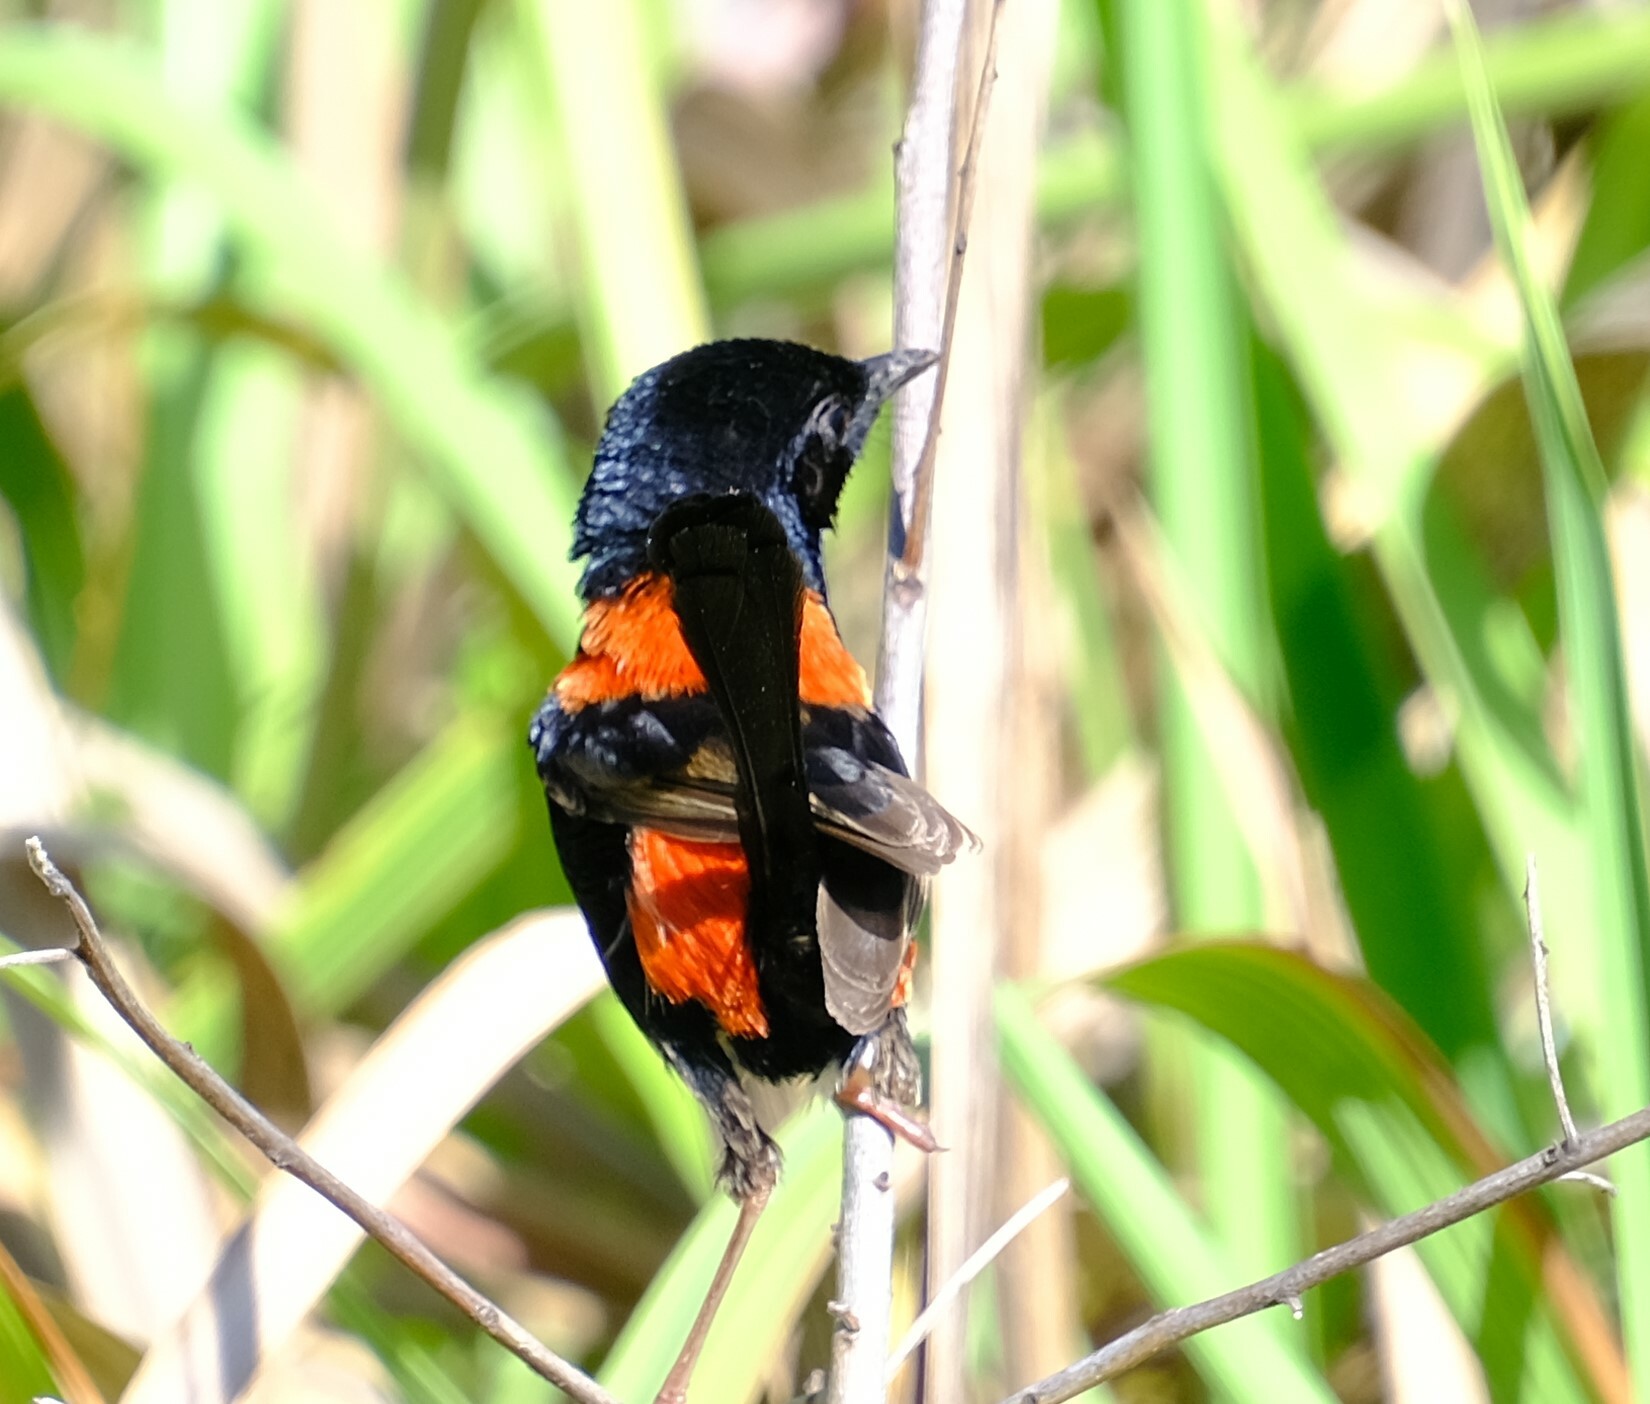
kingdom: Animalia
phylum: Chordata
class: Aves
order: Passeriformes
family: Maluridae
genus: Malurus
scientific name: Malurus melanocephalus
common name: Red-backed fairywren
